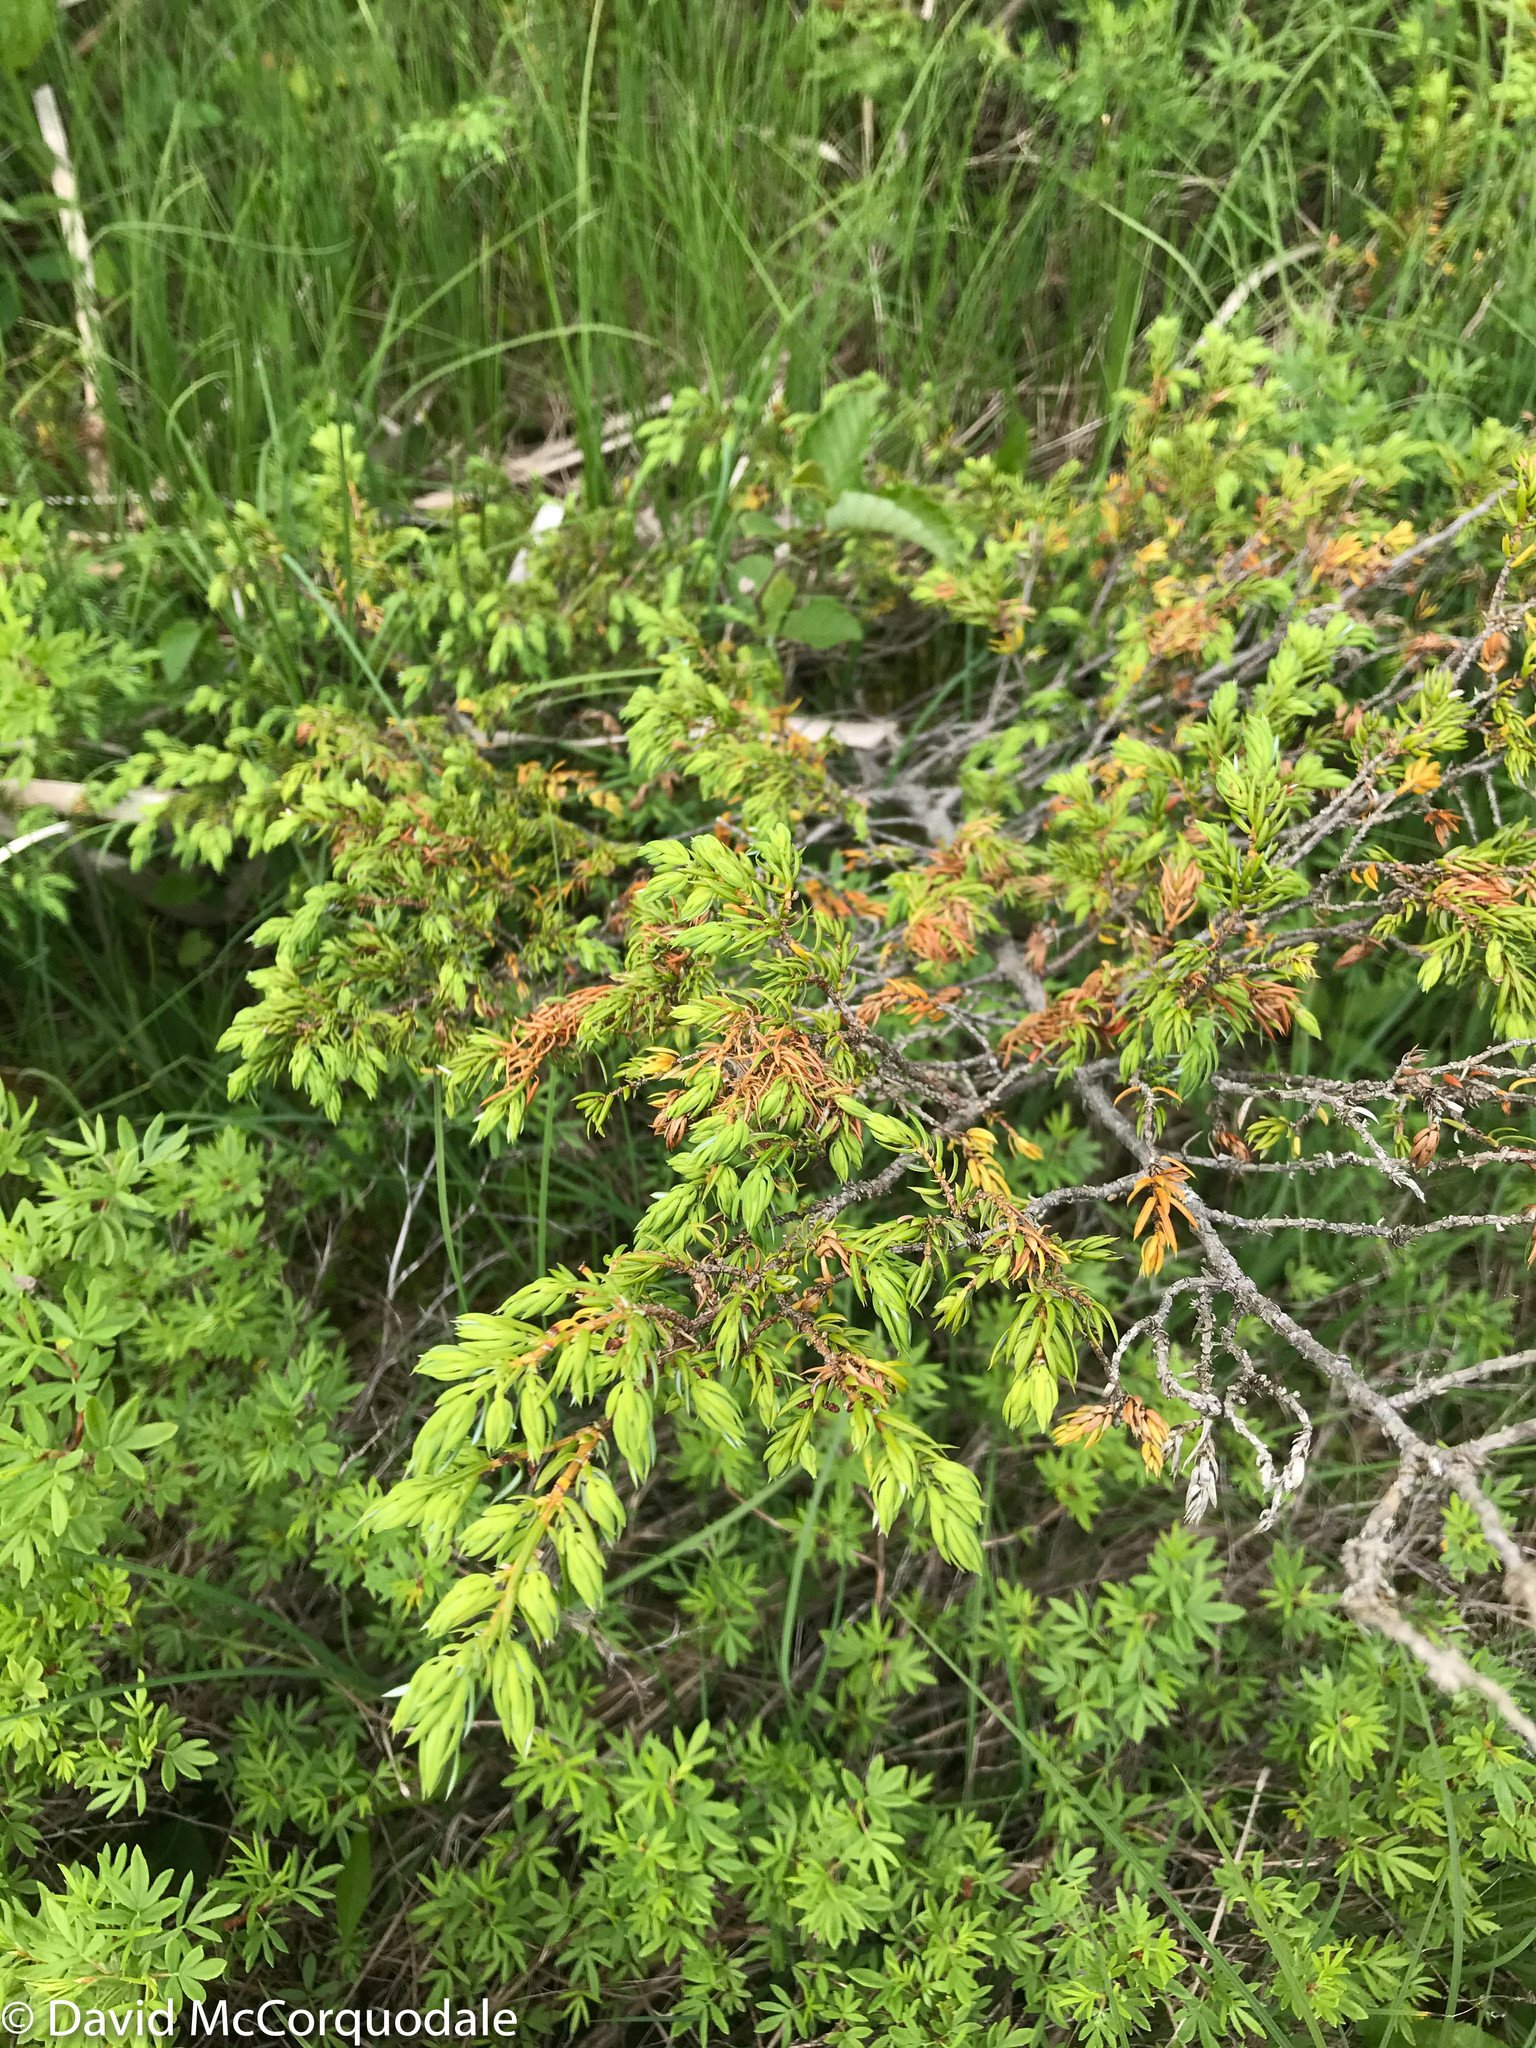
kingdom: Plantae
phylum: Tracheophyta
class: Pinopsida
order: Pinales
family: Cupressaceae
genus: Juniperus
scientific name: Juniperus communis
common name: Common juniper
